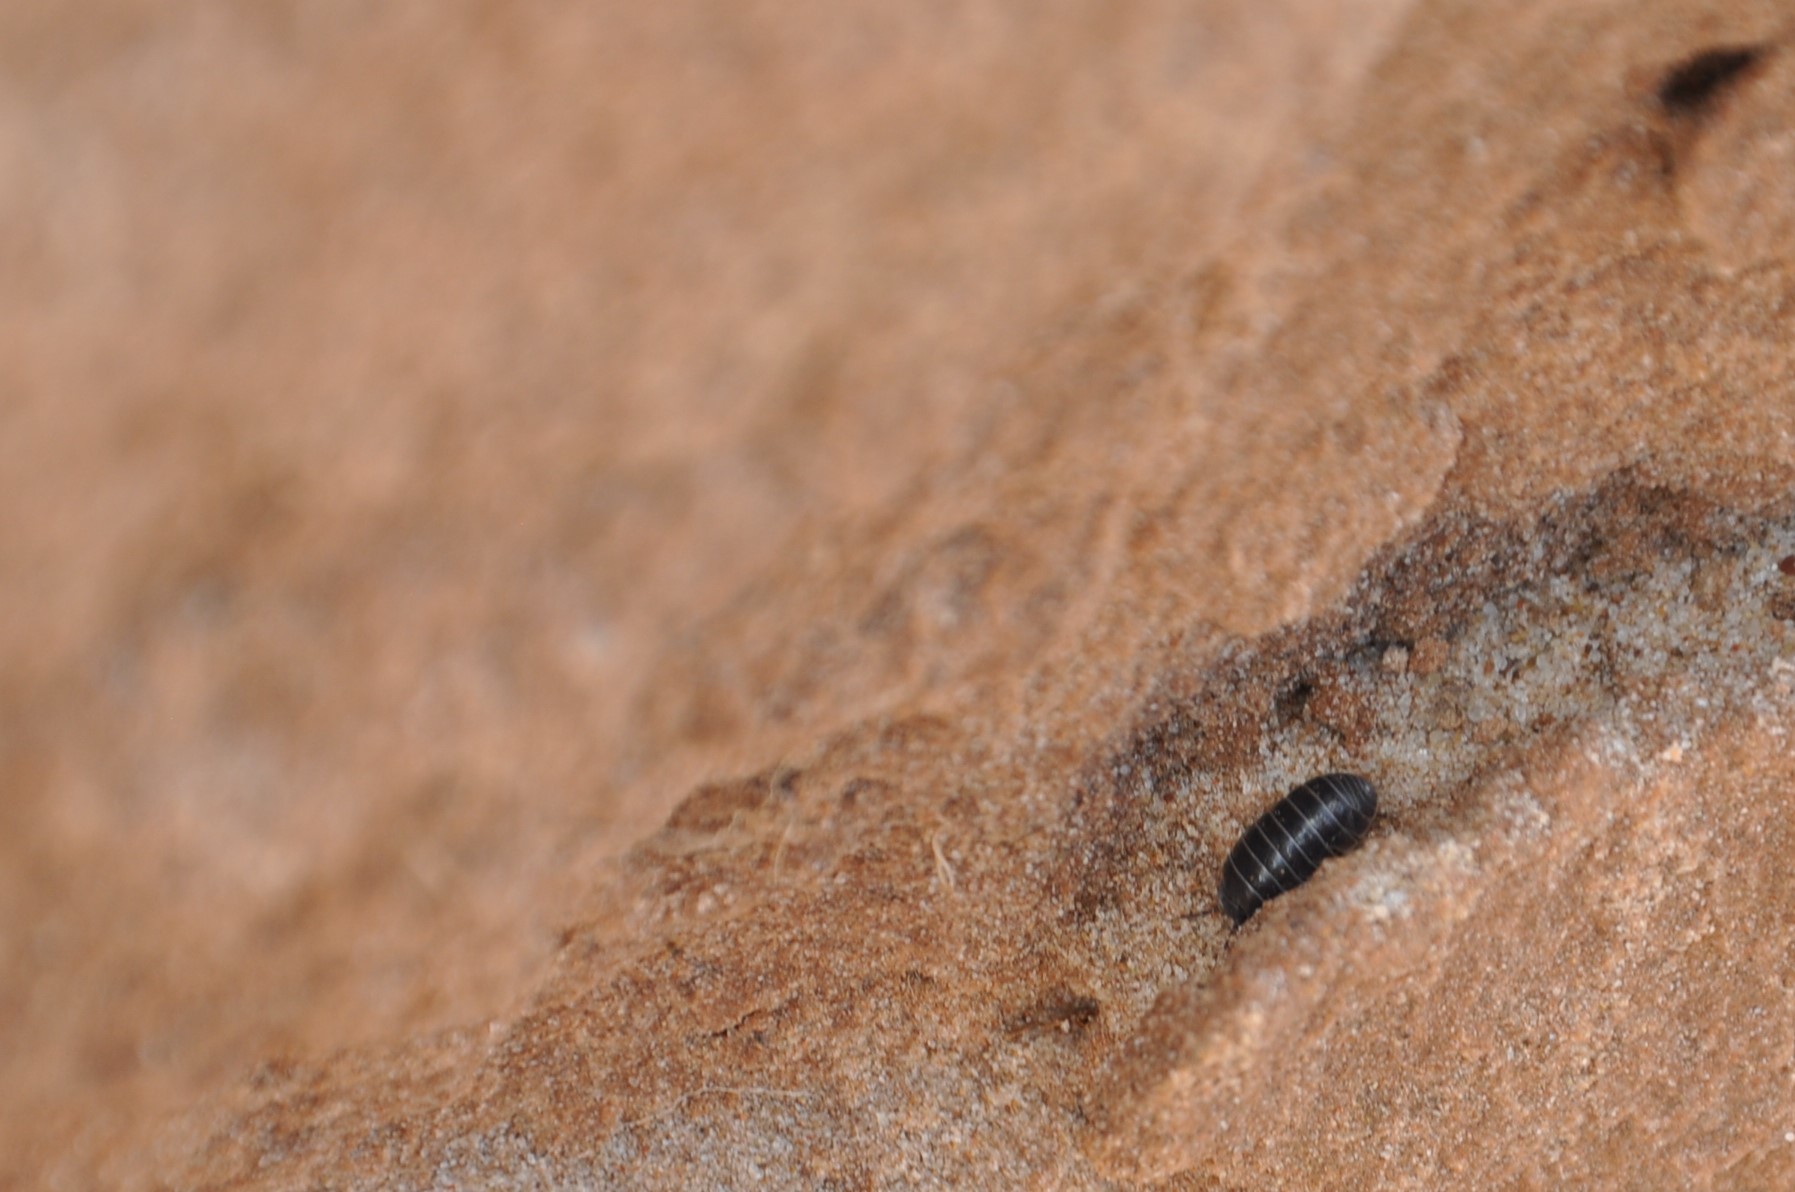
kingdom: Animalia
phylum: Arthropoda
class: Malacostraca
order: Isopoda
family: Armadillidiidae
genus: Armadillidium
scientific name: Armadillidium vulgare
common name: Common pill woodlouse
